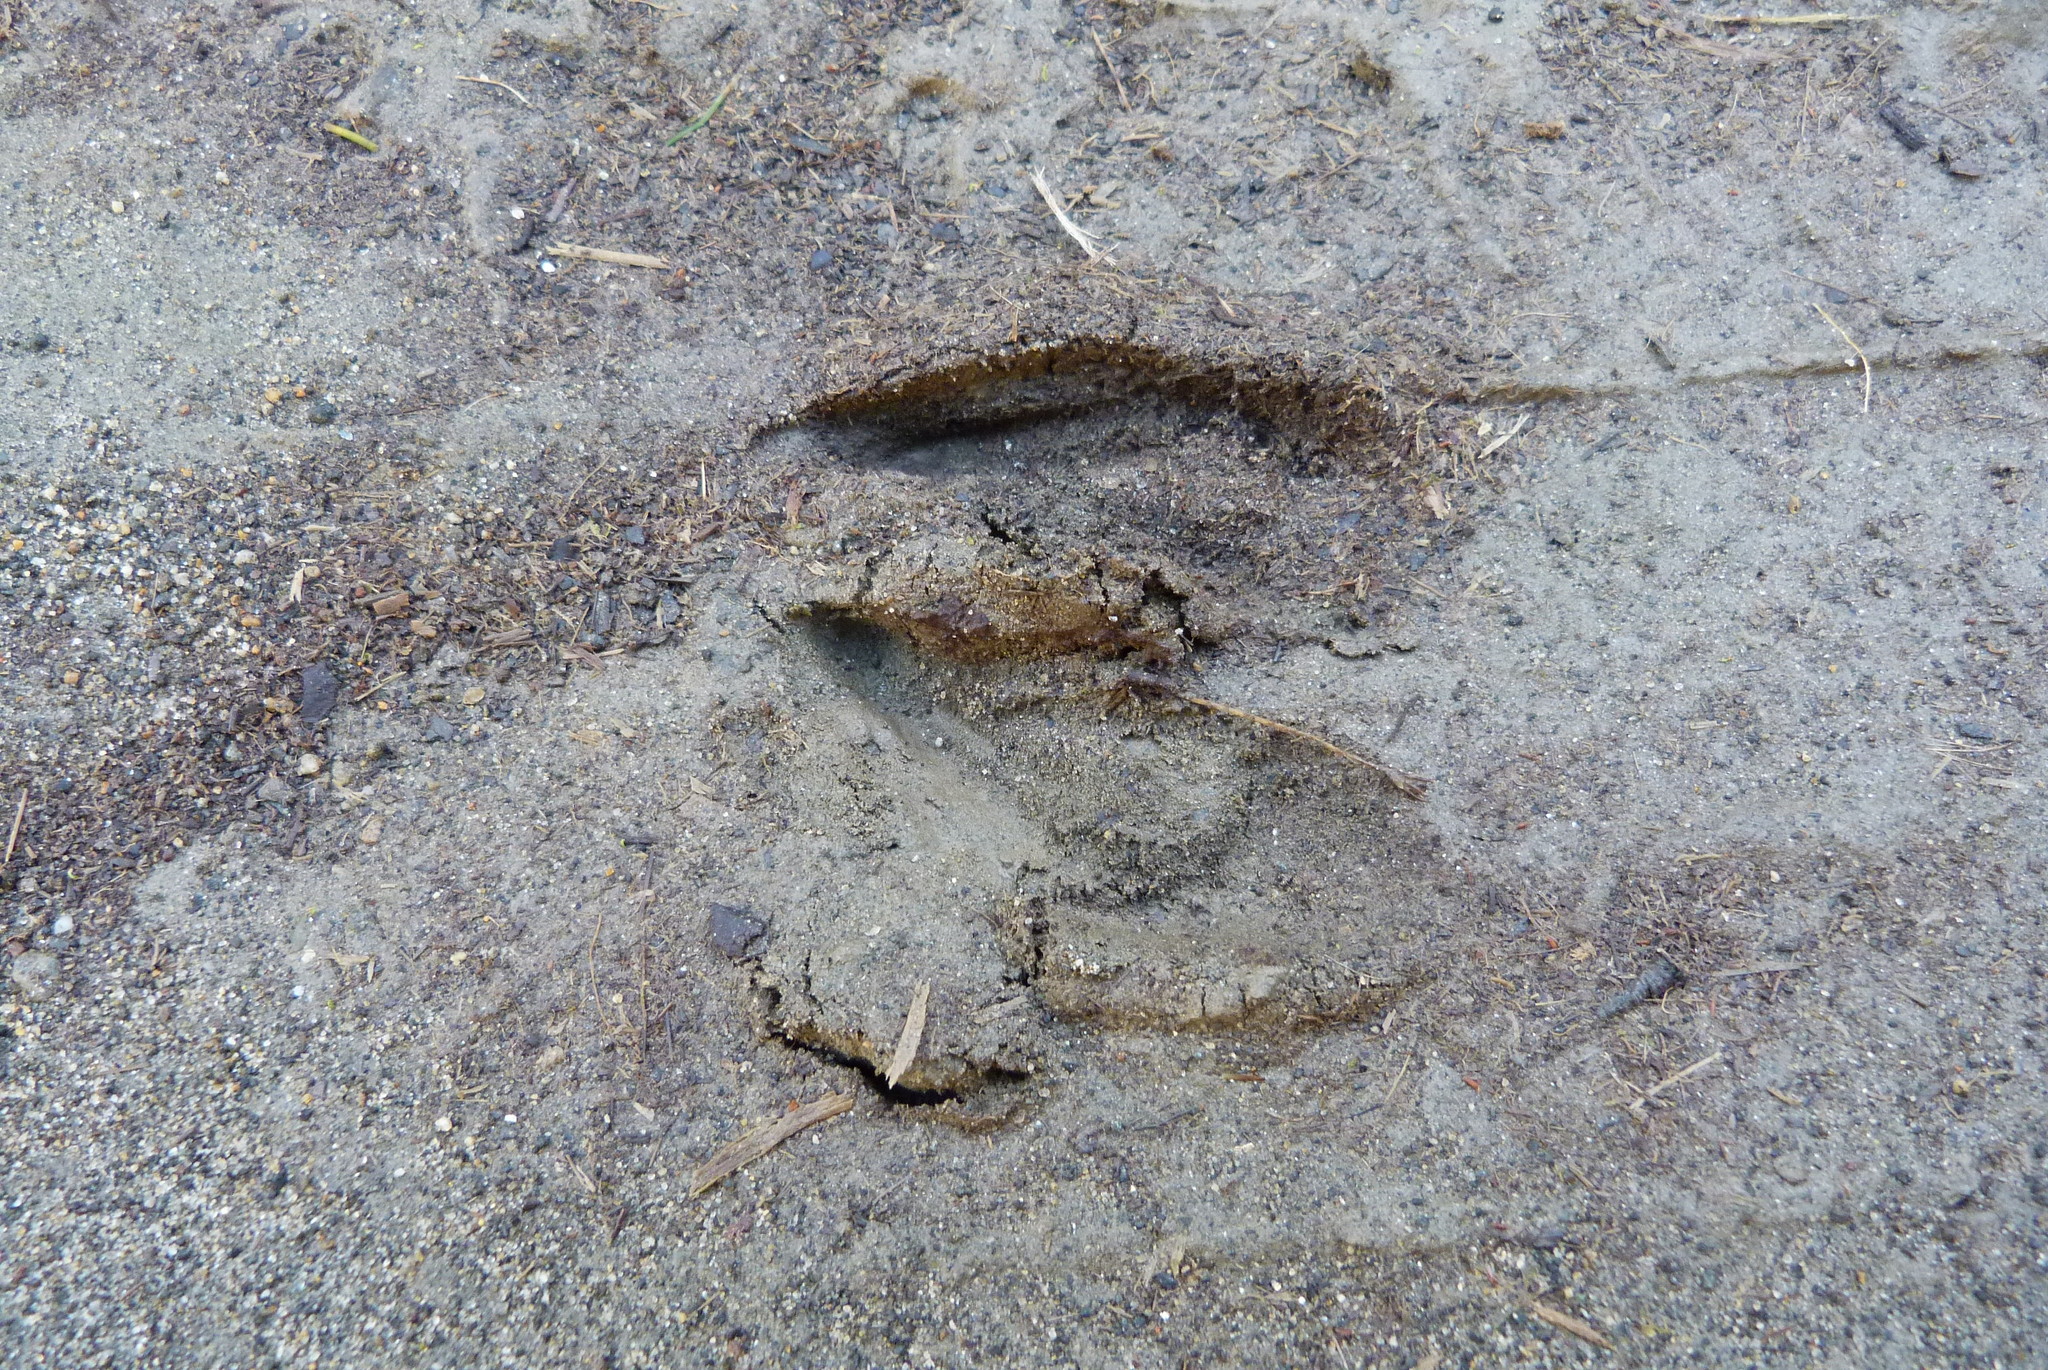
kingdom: Animalia
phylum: Chordata
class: Mammalia
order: Artiodactyla
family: Cervidae
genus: Odocoileus
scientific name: Odocoileus virginianus
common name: White-tailed deer
